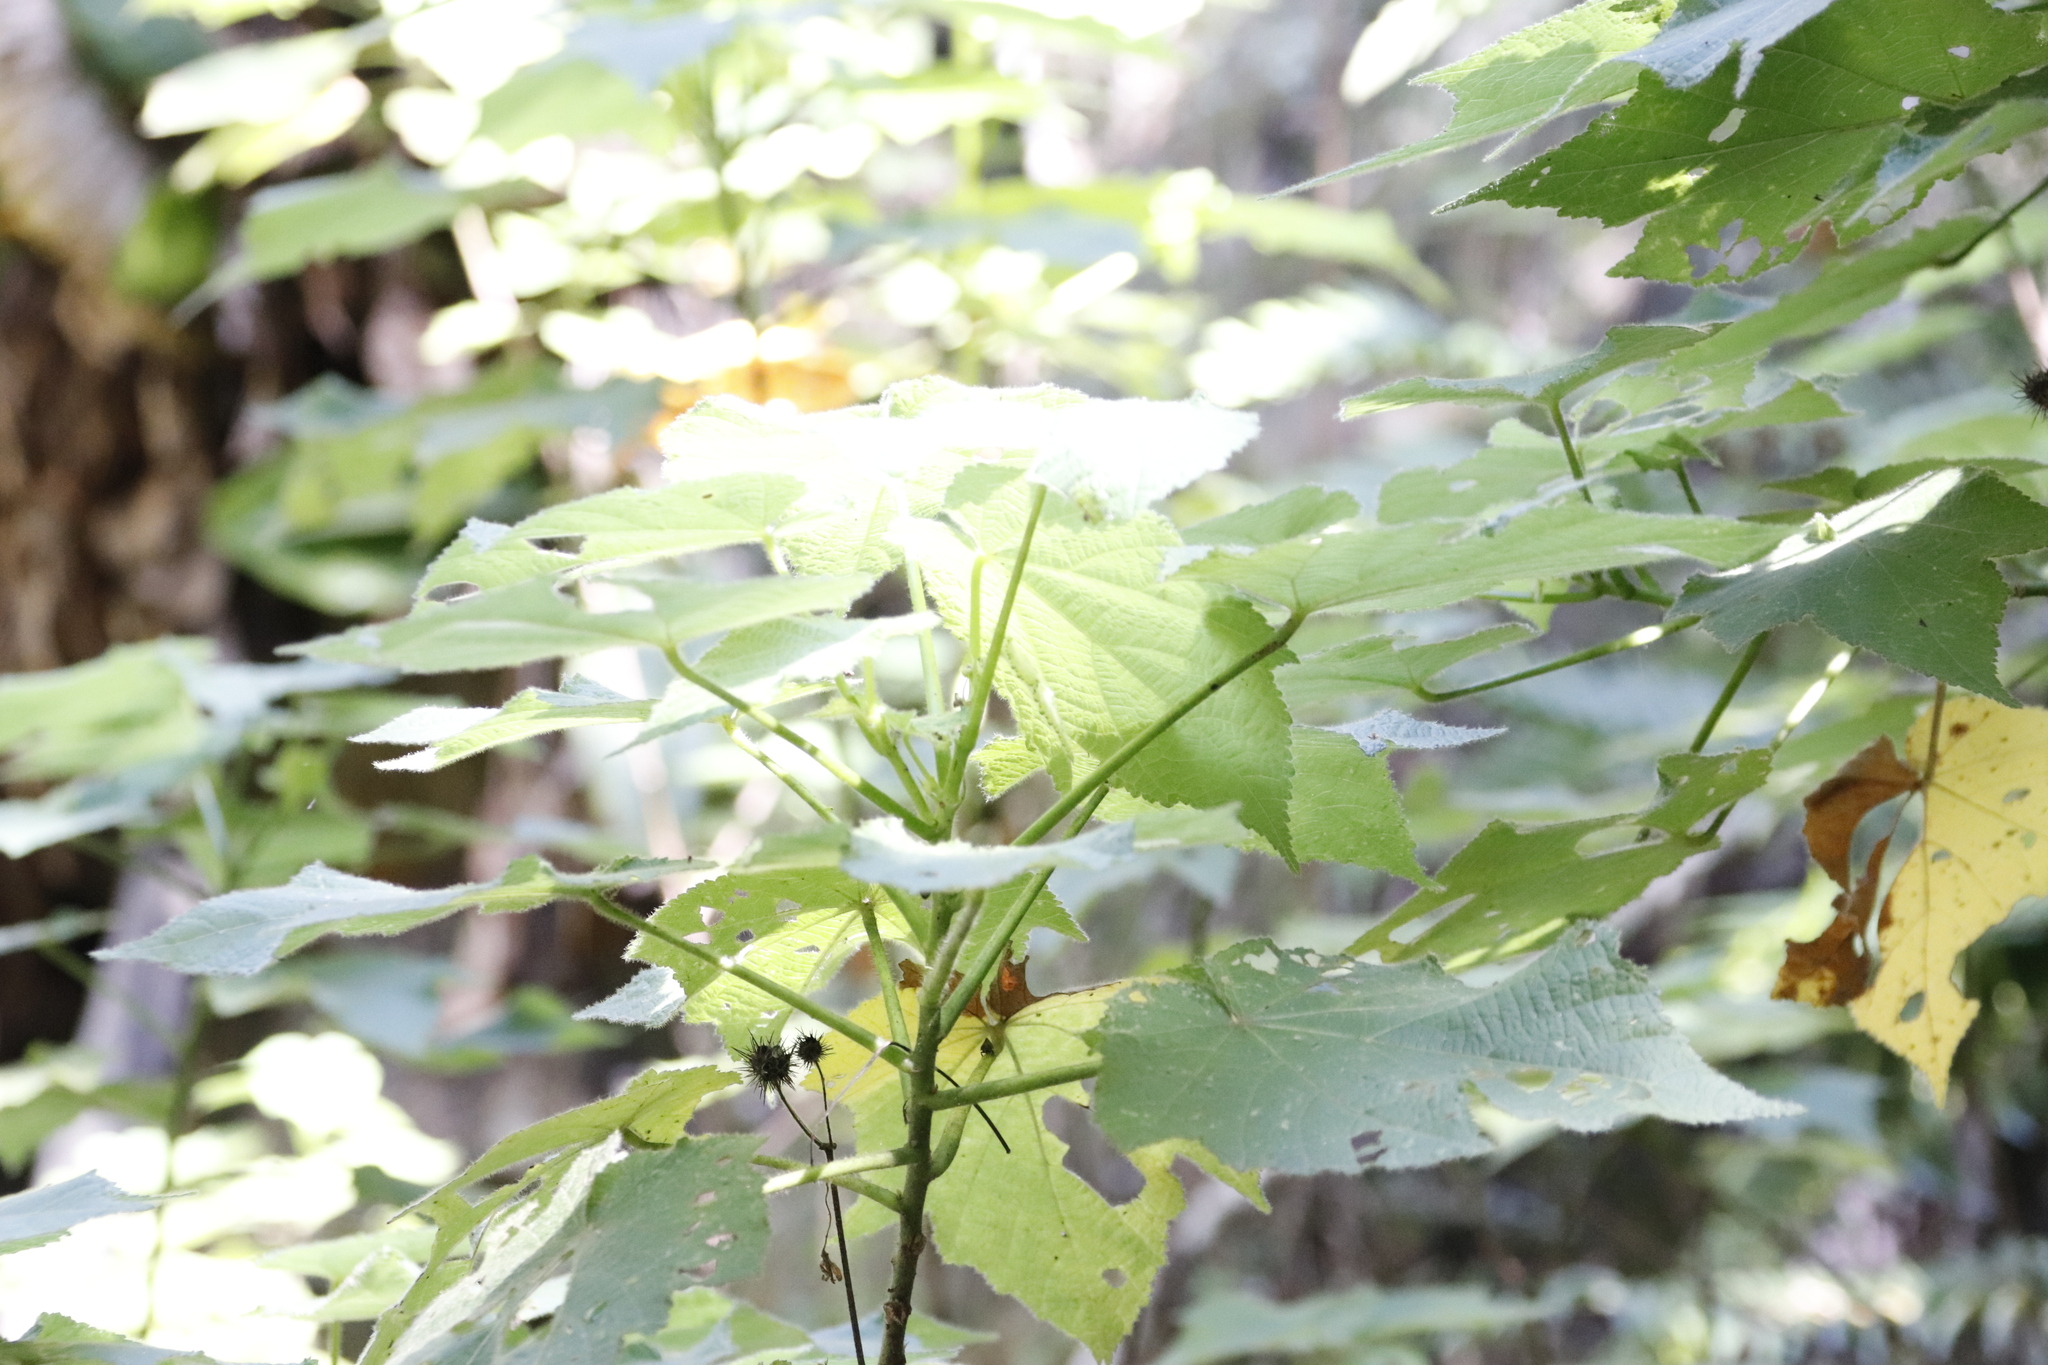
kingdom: Plantae
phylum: Tracheophyta
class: Magnoliopsida
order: Malvales
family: Malvaceae
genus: Sparrmannia
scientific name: Sparrmannia africana
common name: African-hemp
